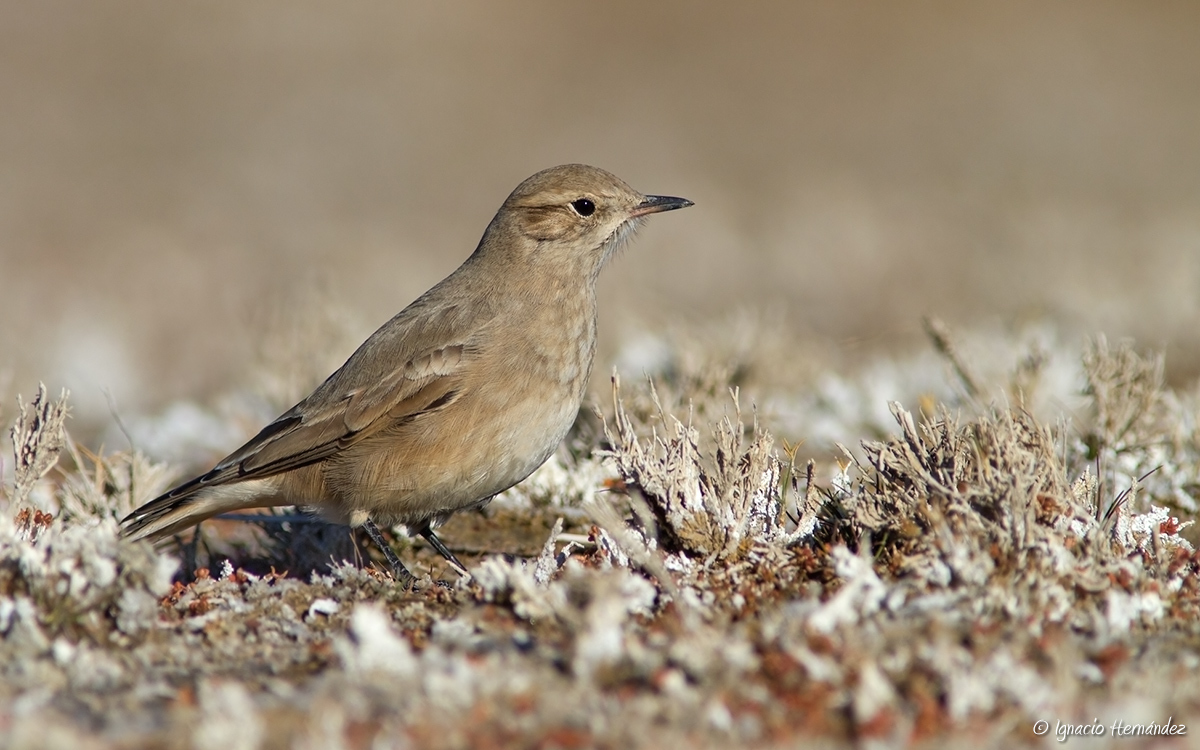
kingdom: Animalia
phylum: Chordata
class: Aves
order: Passeriformes
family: Furnariidae
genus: Geositta
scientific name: Geositta antarctica
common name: Short-billed miner
